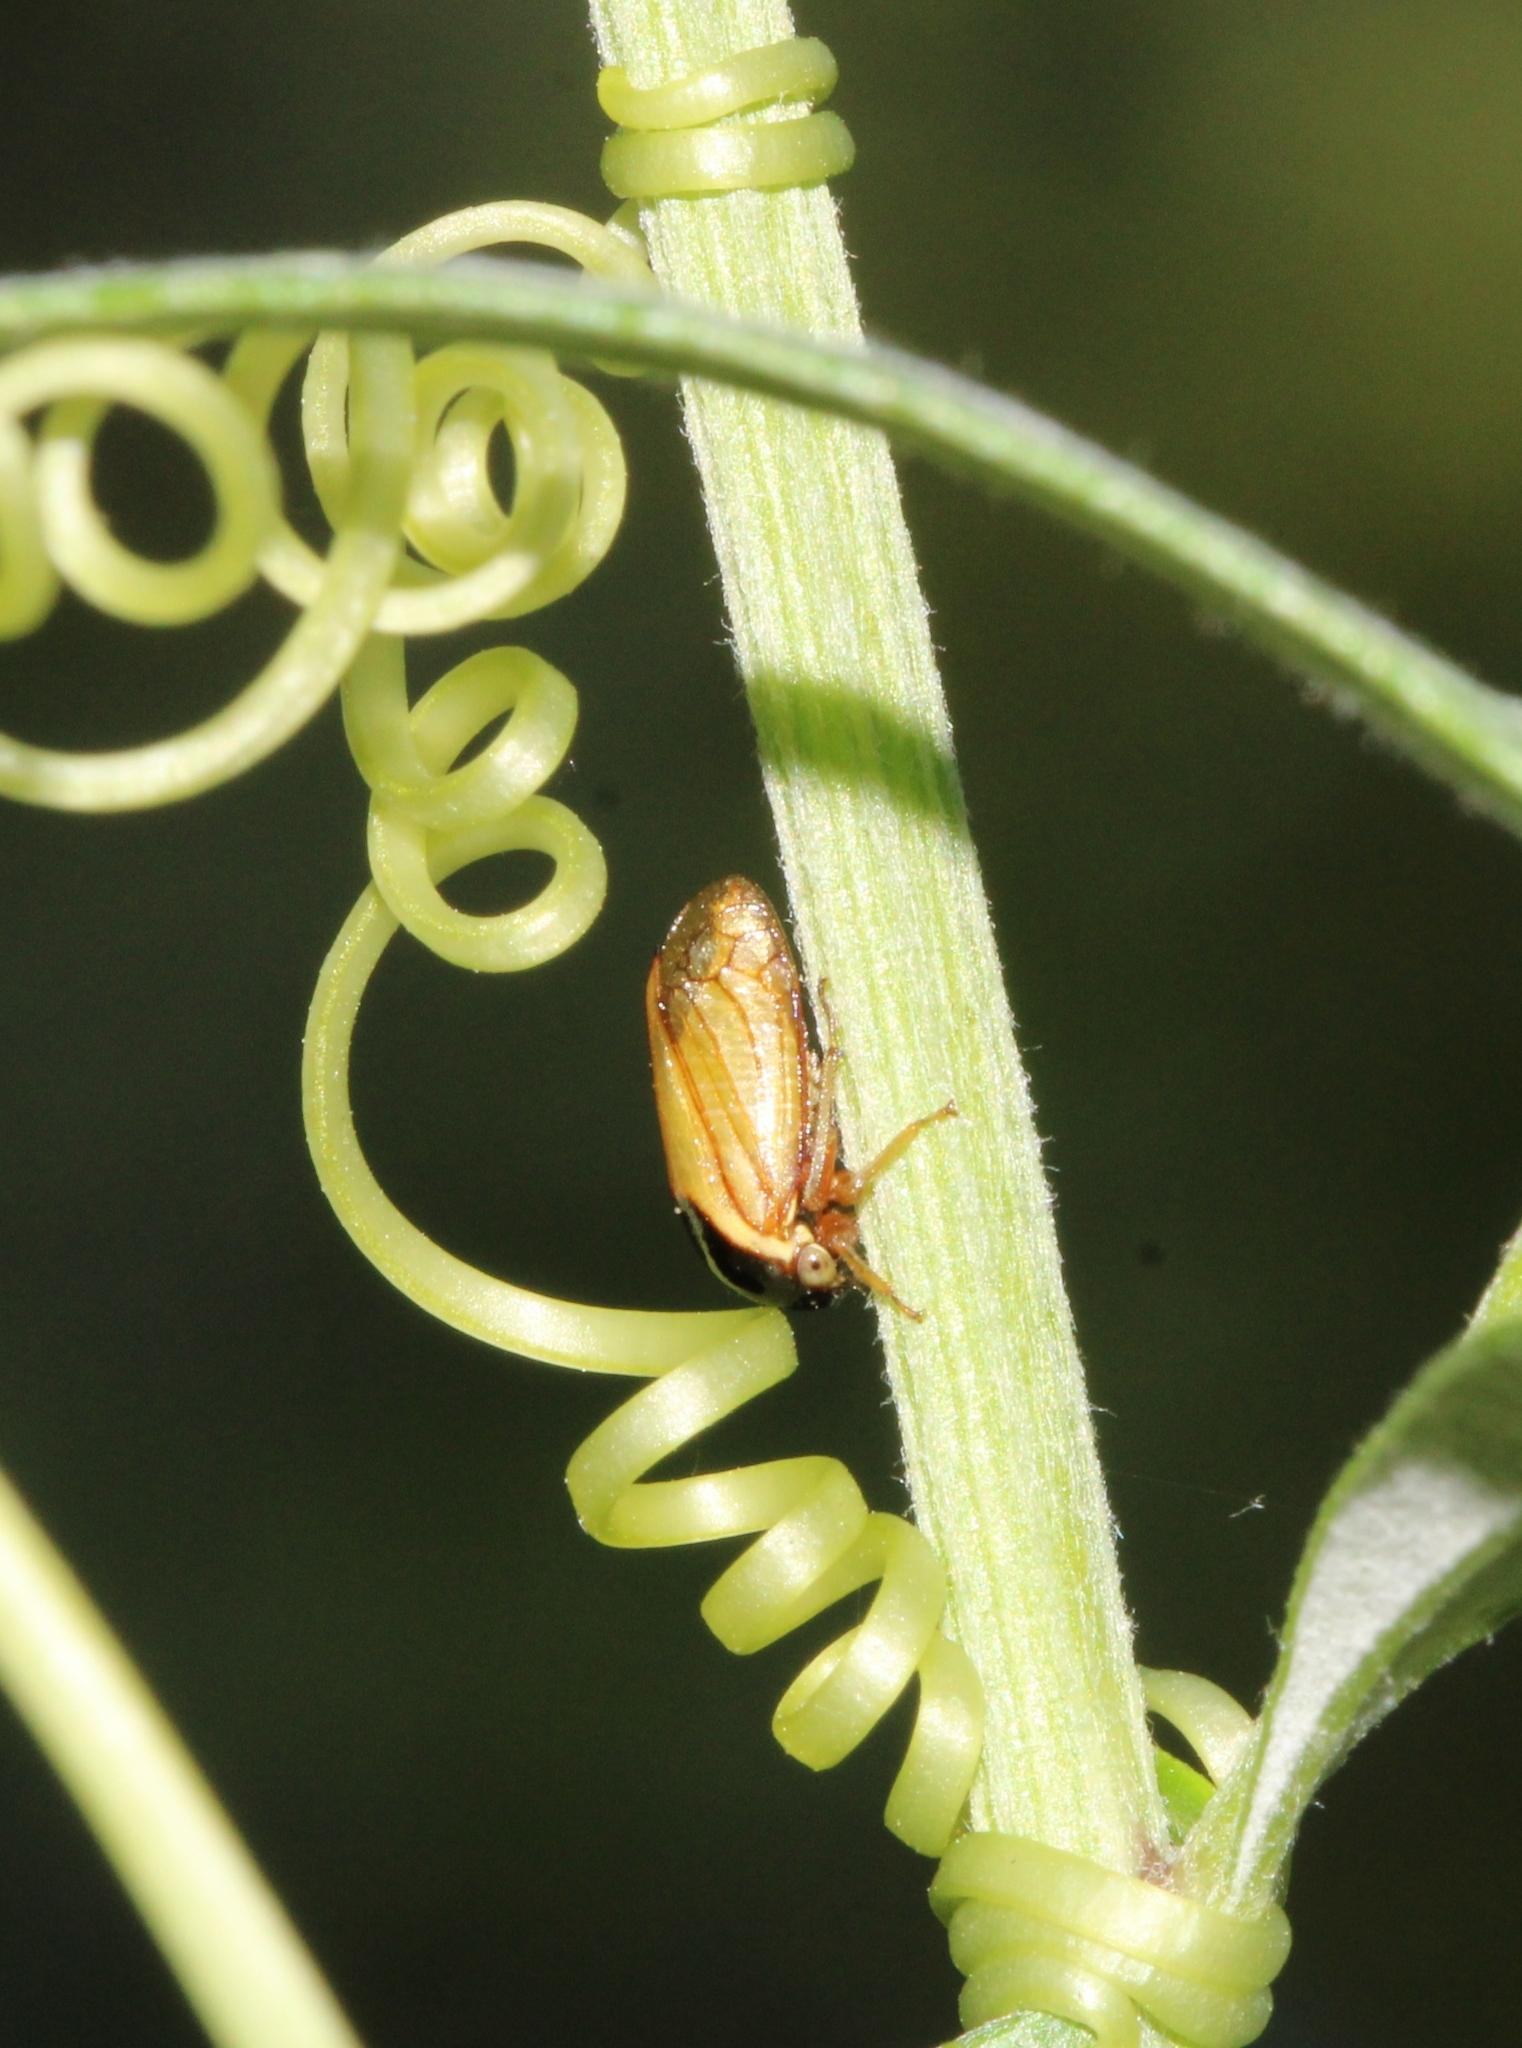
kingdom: Animalia
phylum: Arthropoda
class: Insecta
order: Hemiptera
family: Membracidae
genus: Acutalis
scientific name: Acutalis tartarea
